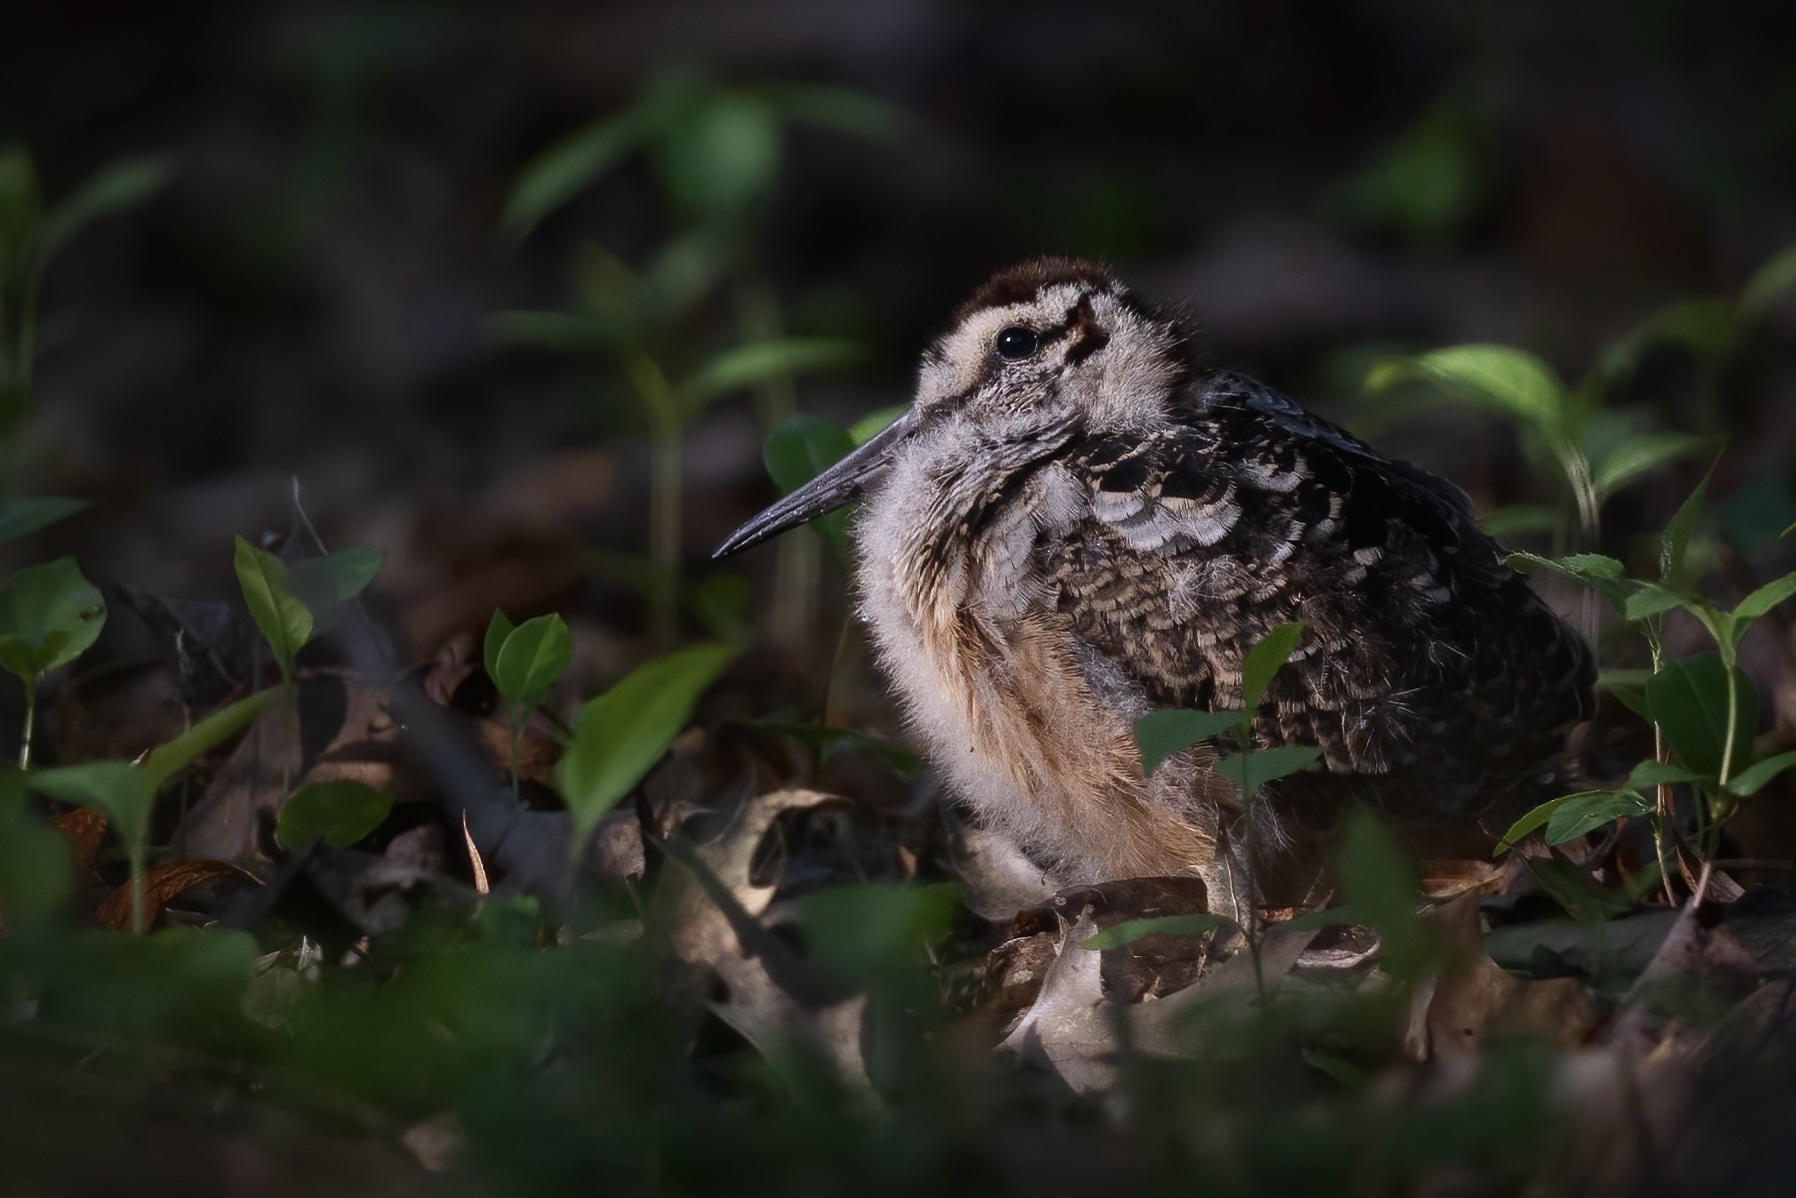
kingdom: Animalia
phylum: Chordata
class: Aves
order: Charadriiformes
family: Scolopacidae
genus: Scolopax
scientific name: Scolopax minor
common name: American woodcock
